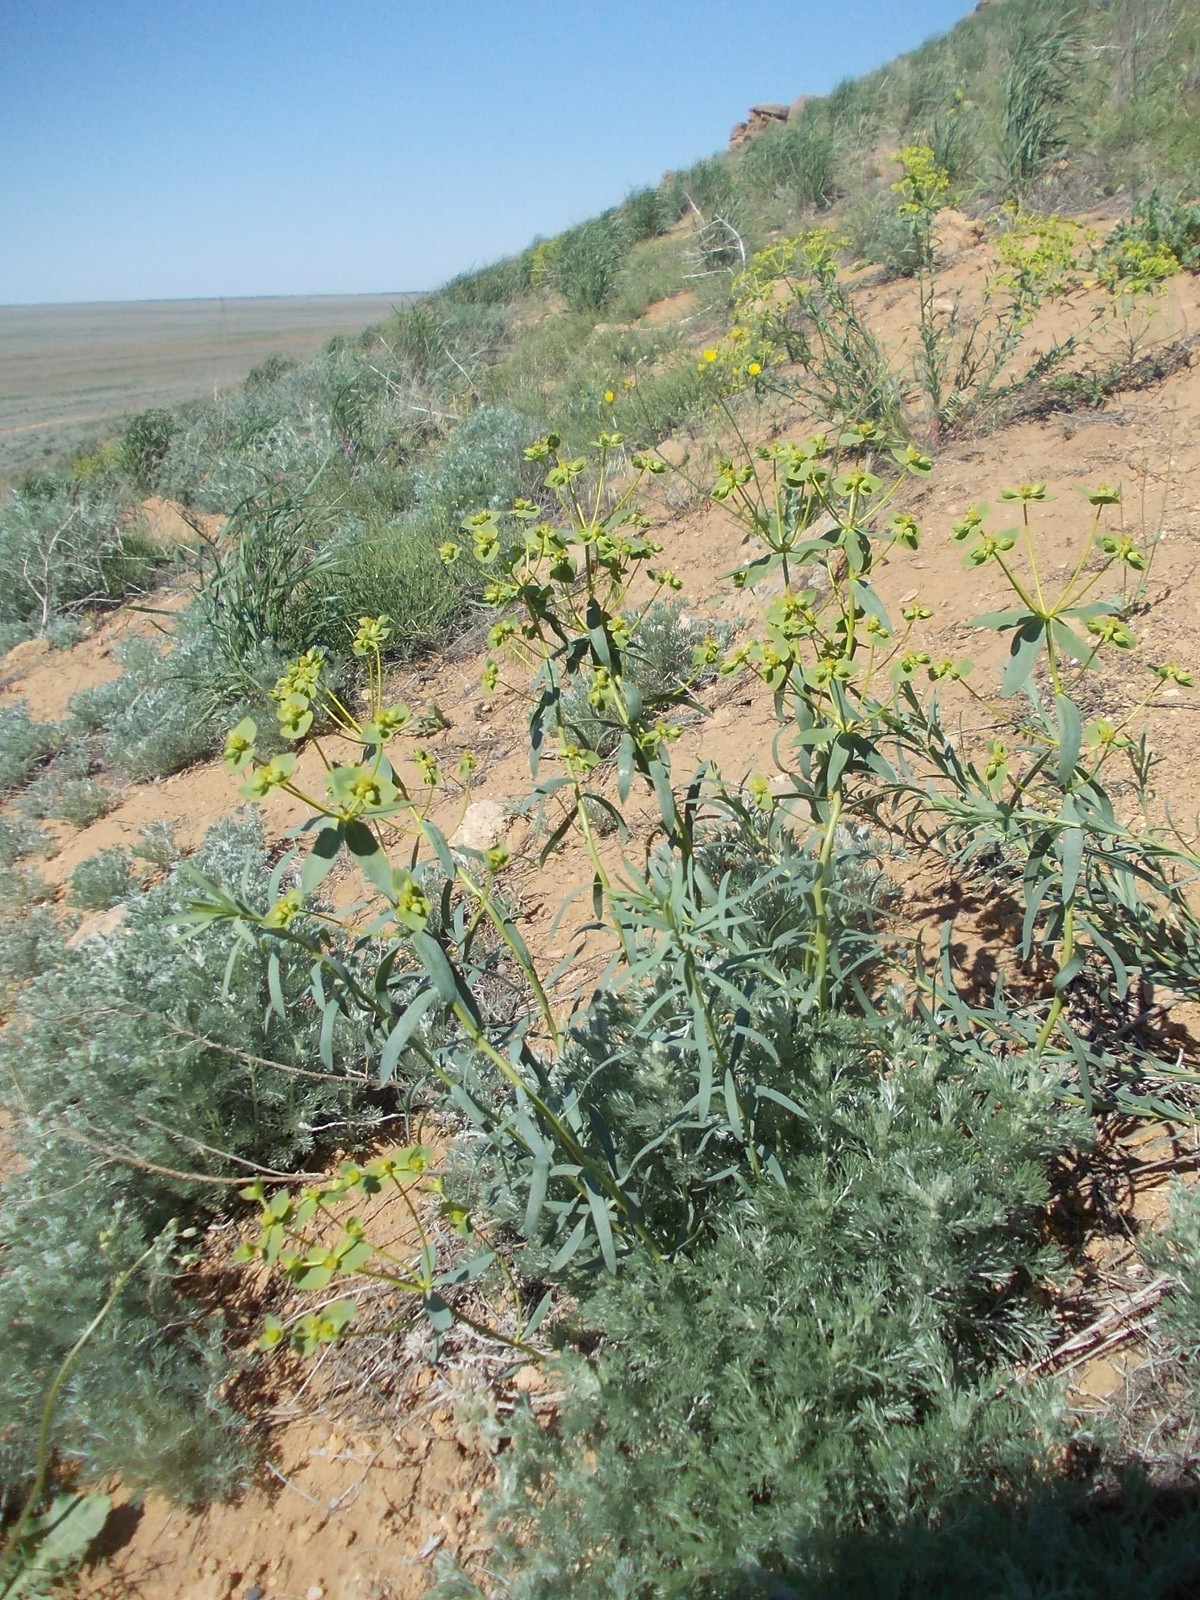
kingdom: Plantae
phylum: Tracheophyta
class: Magnoliopsida
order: Malpighiales
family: Euphorbiaceae
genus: Euphorbia
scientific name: Euphorbia seguieriana
